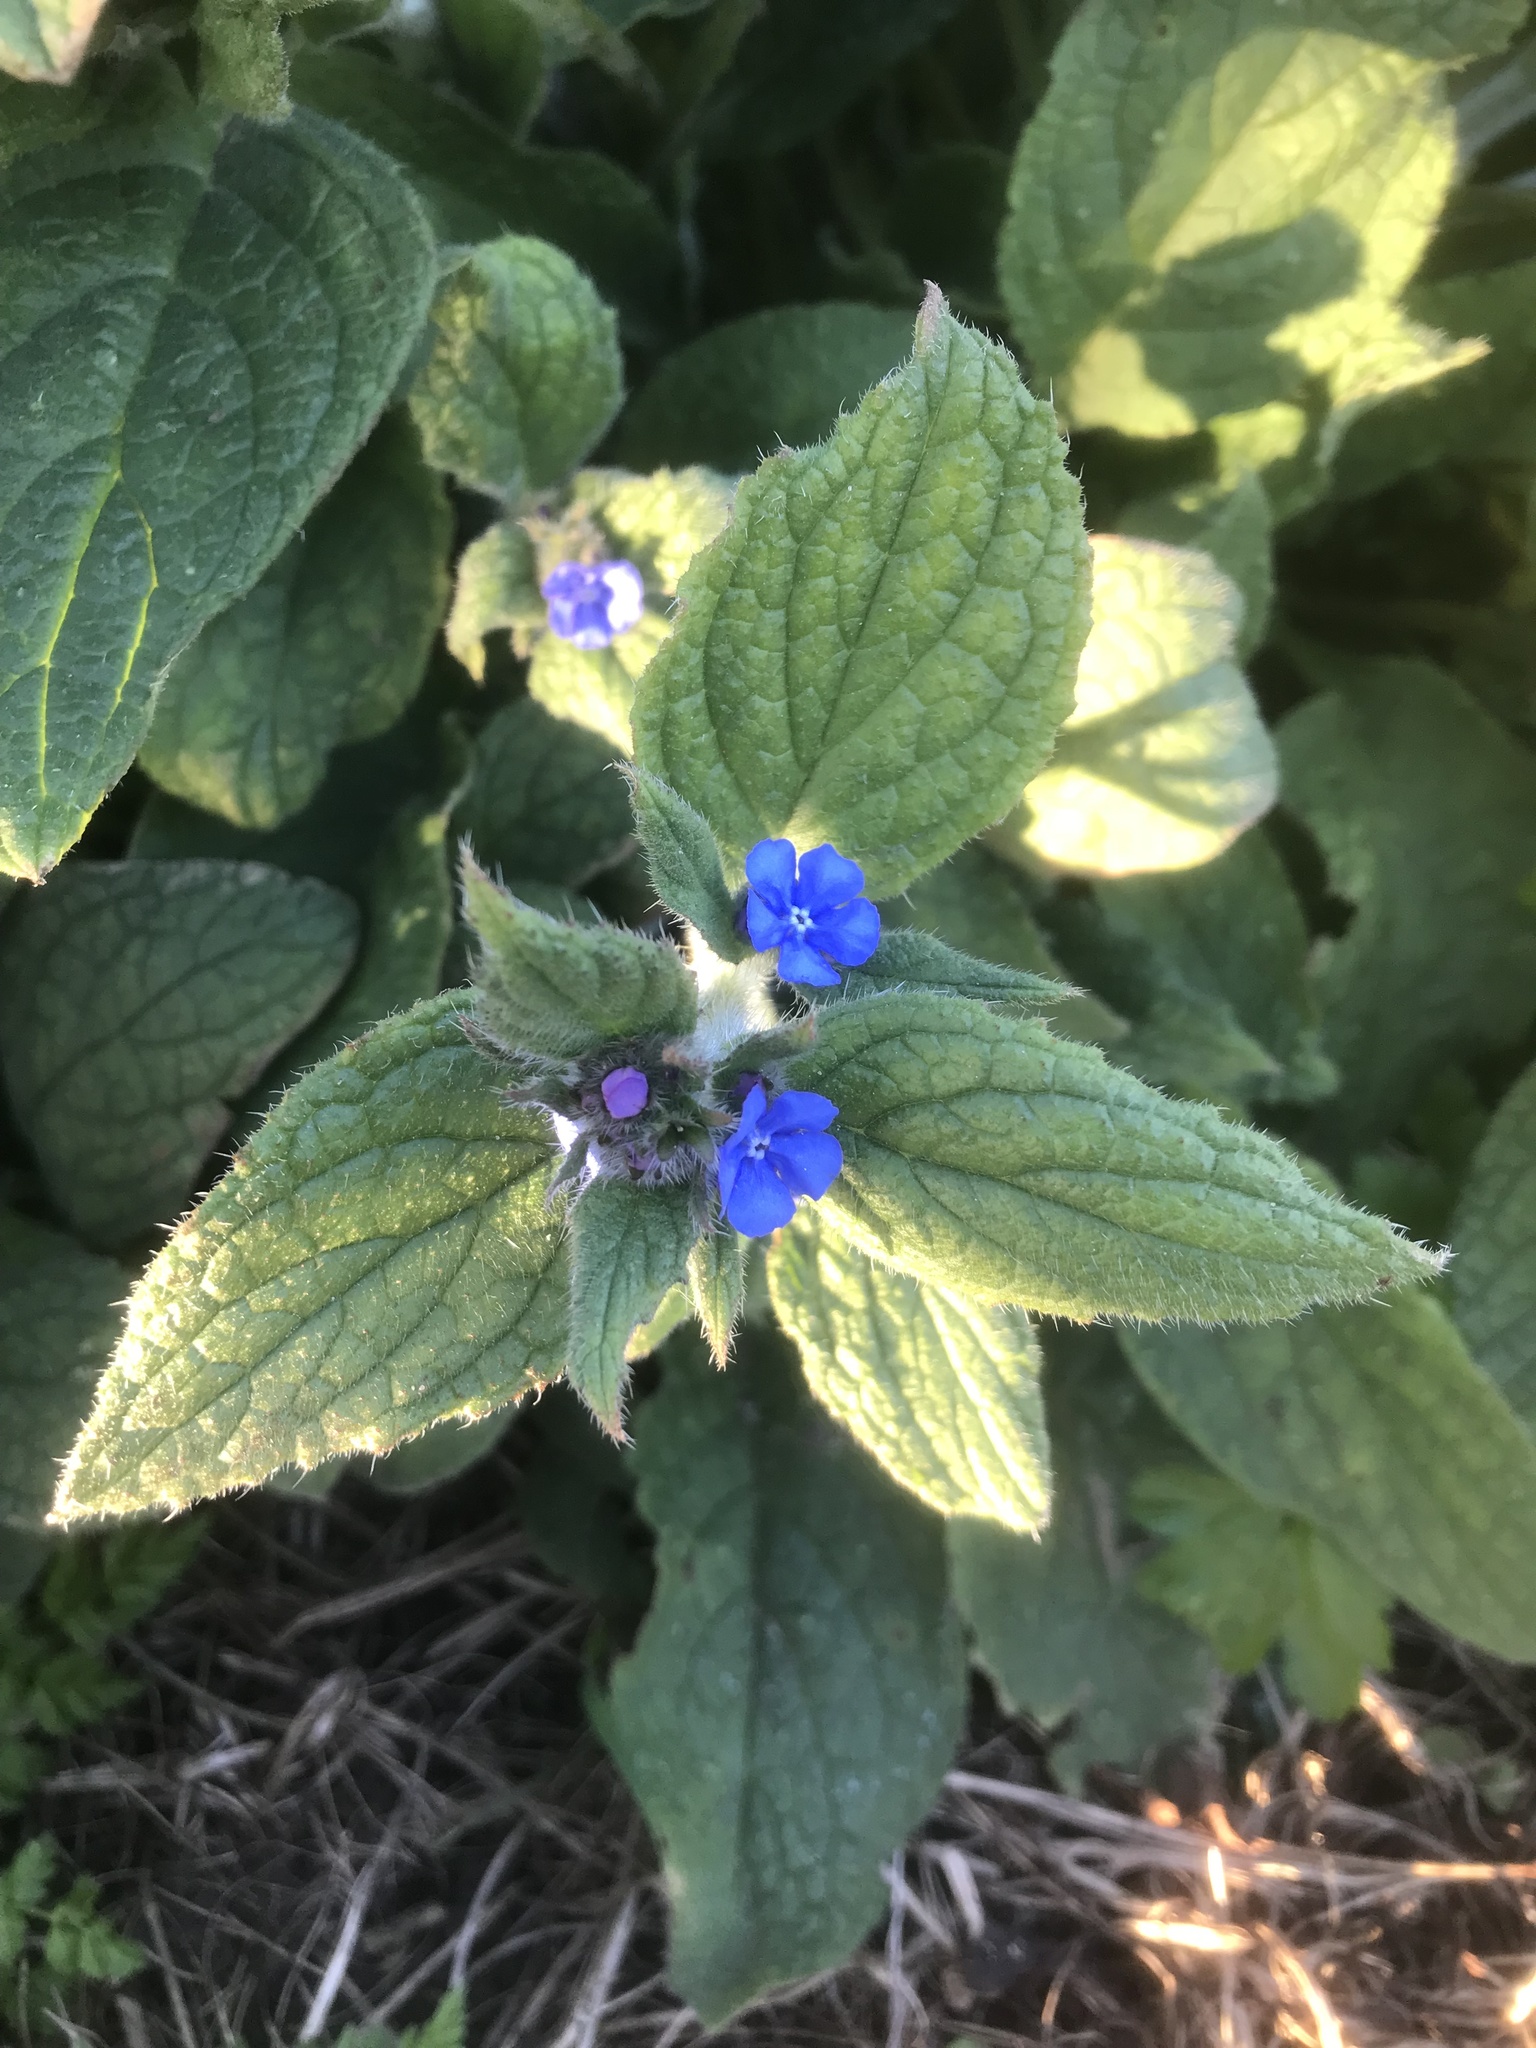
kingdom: Plantae
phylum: Tracheophyta
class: Magnoliopsida
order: Boraginales
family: Boraginaceae
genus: Pentaglottis
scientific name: Pentaglottis sempervirens
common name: Green alkanet
